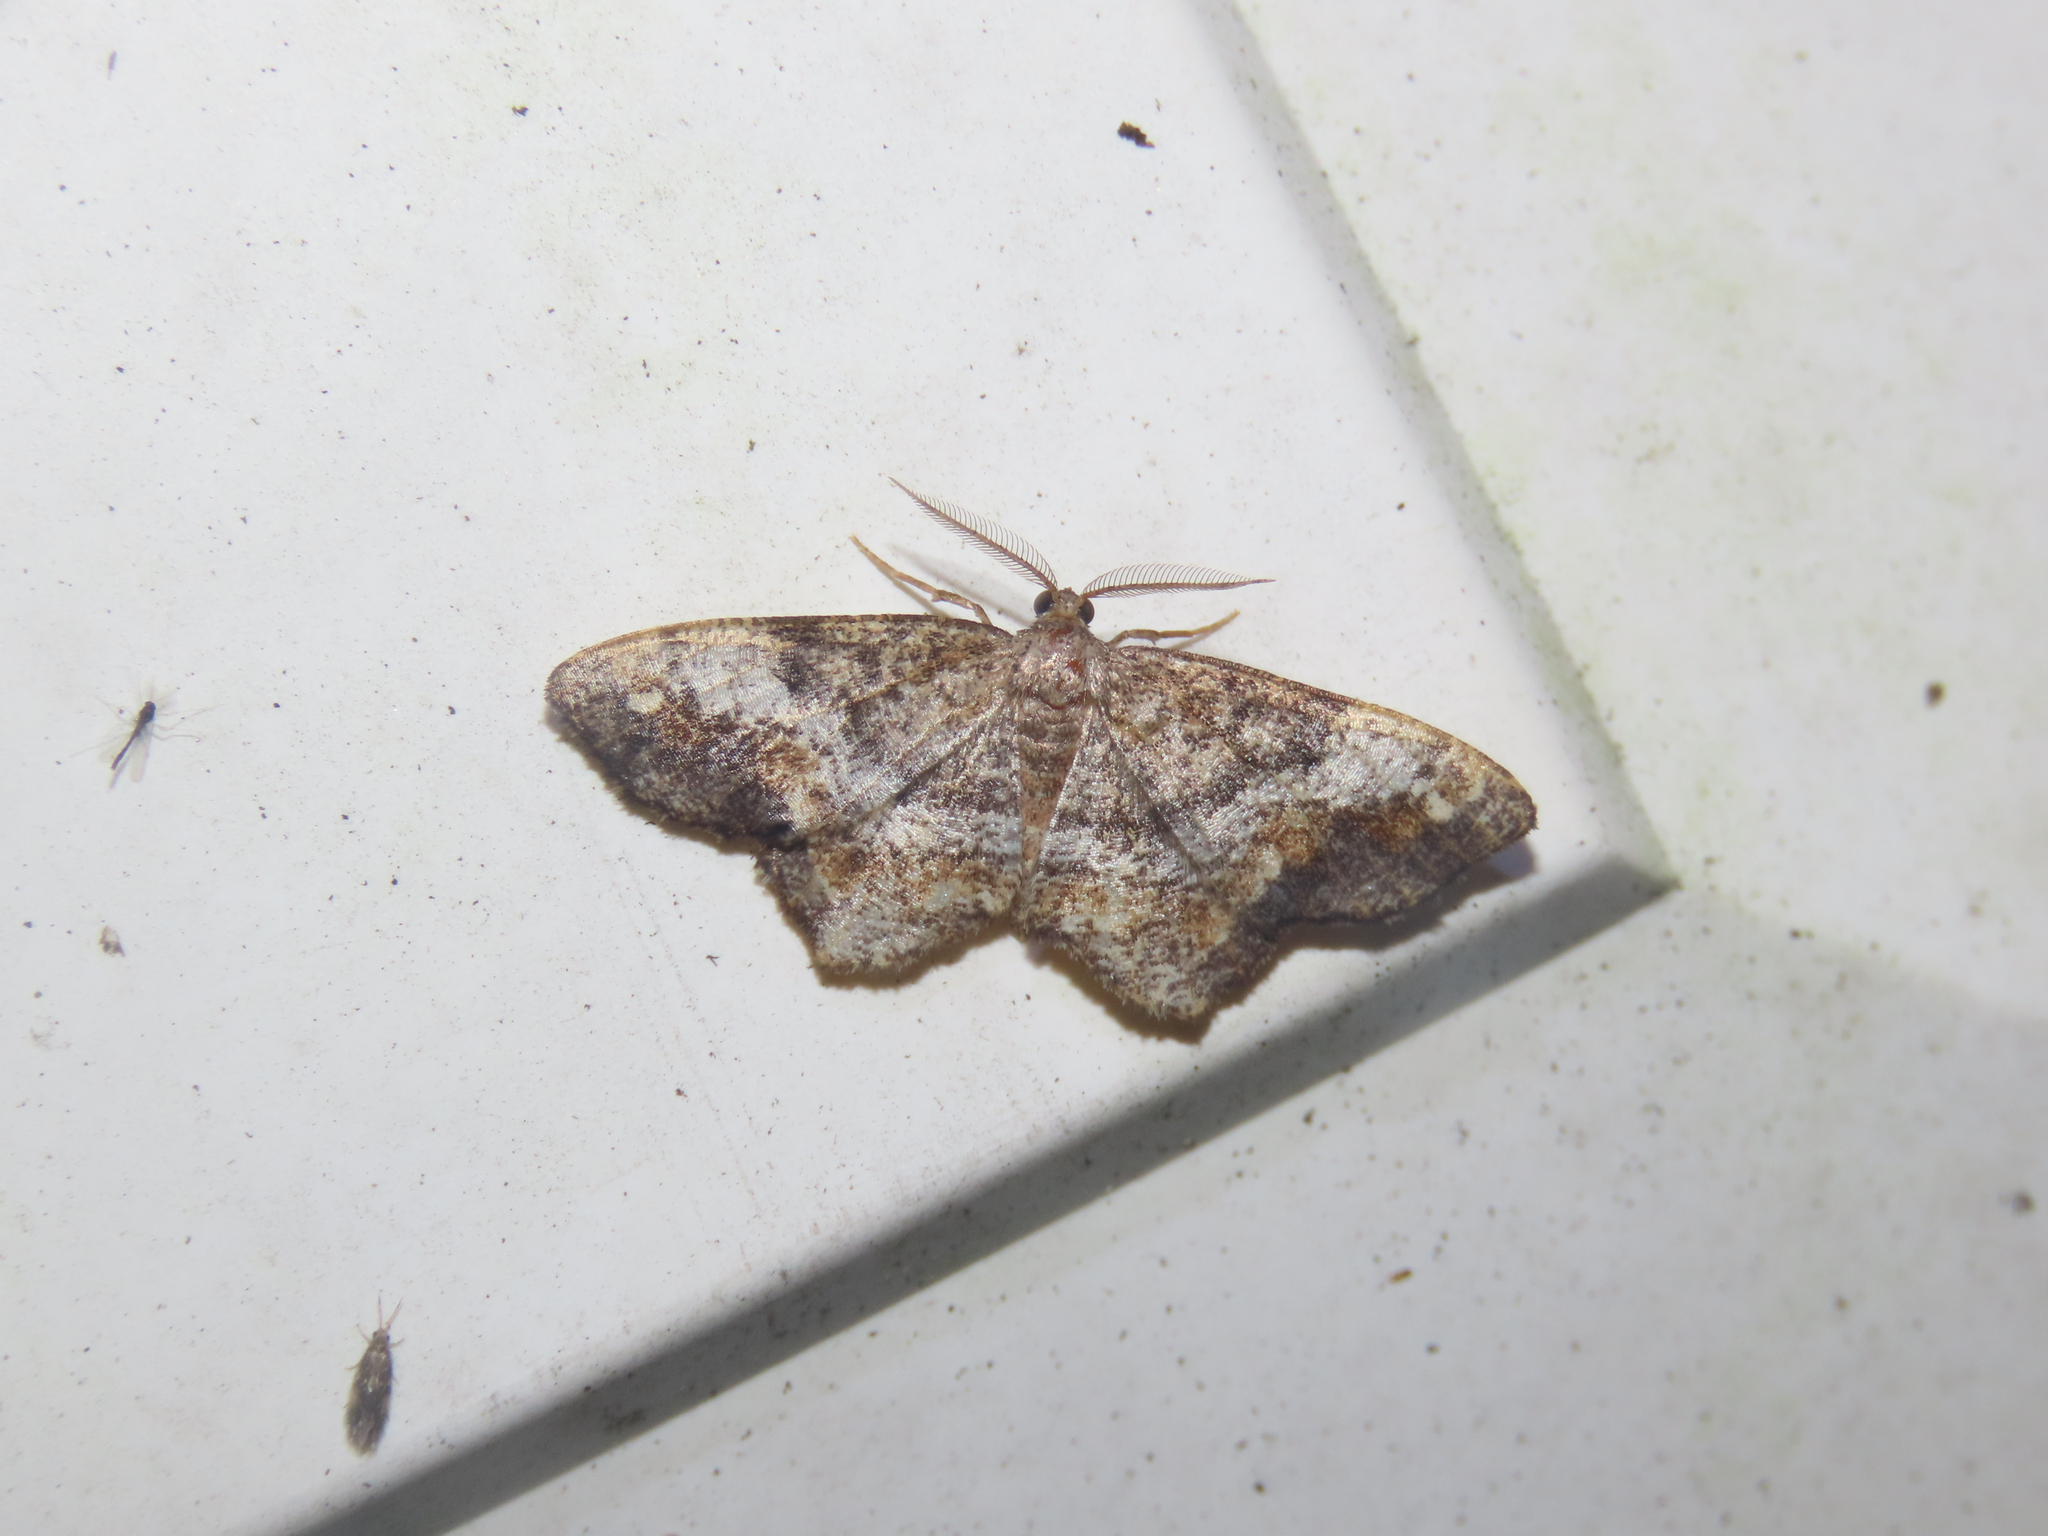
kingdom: Animalia
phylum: Arthropoda
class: Insecta
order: Lepidoptera
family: Geometridae
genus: Hypagyrtis
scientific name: Hypagyrtis unipunctata
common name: One-spotted variant
